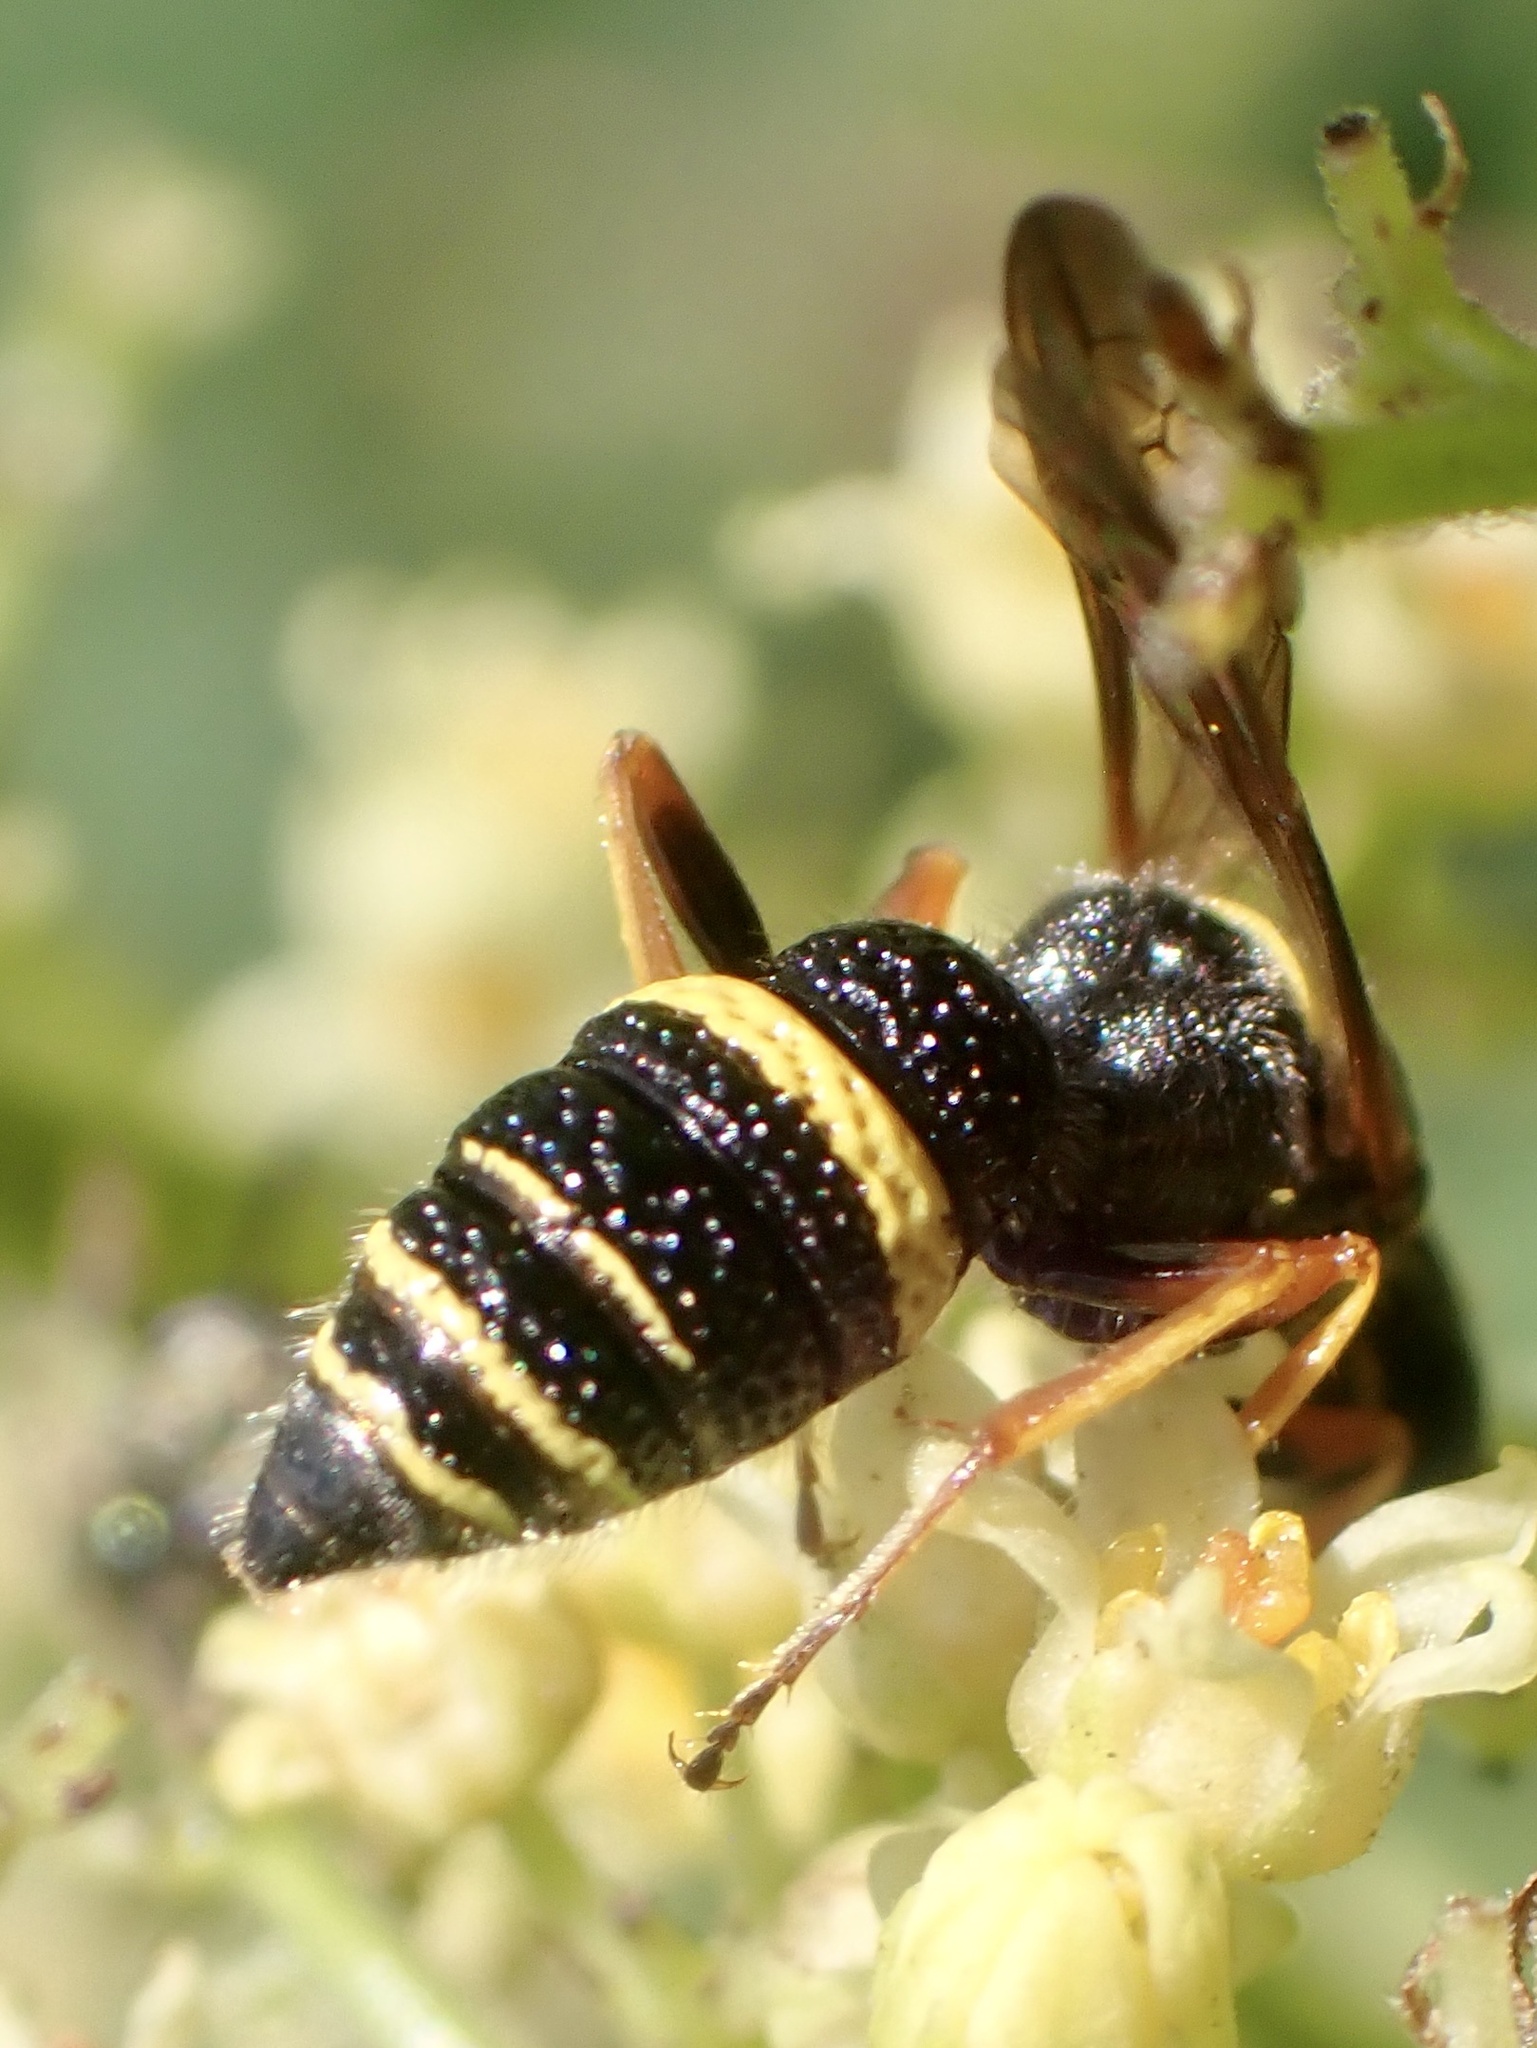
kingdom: Animalia
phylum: Arthropoda
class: Insecta
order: Hymenoptera
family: Crabronidae
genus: Philanthus
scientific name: Philanthus gibbosus
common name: Humped beewolf
